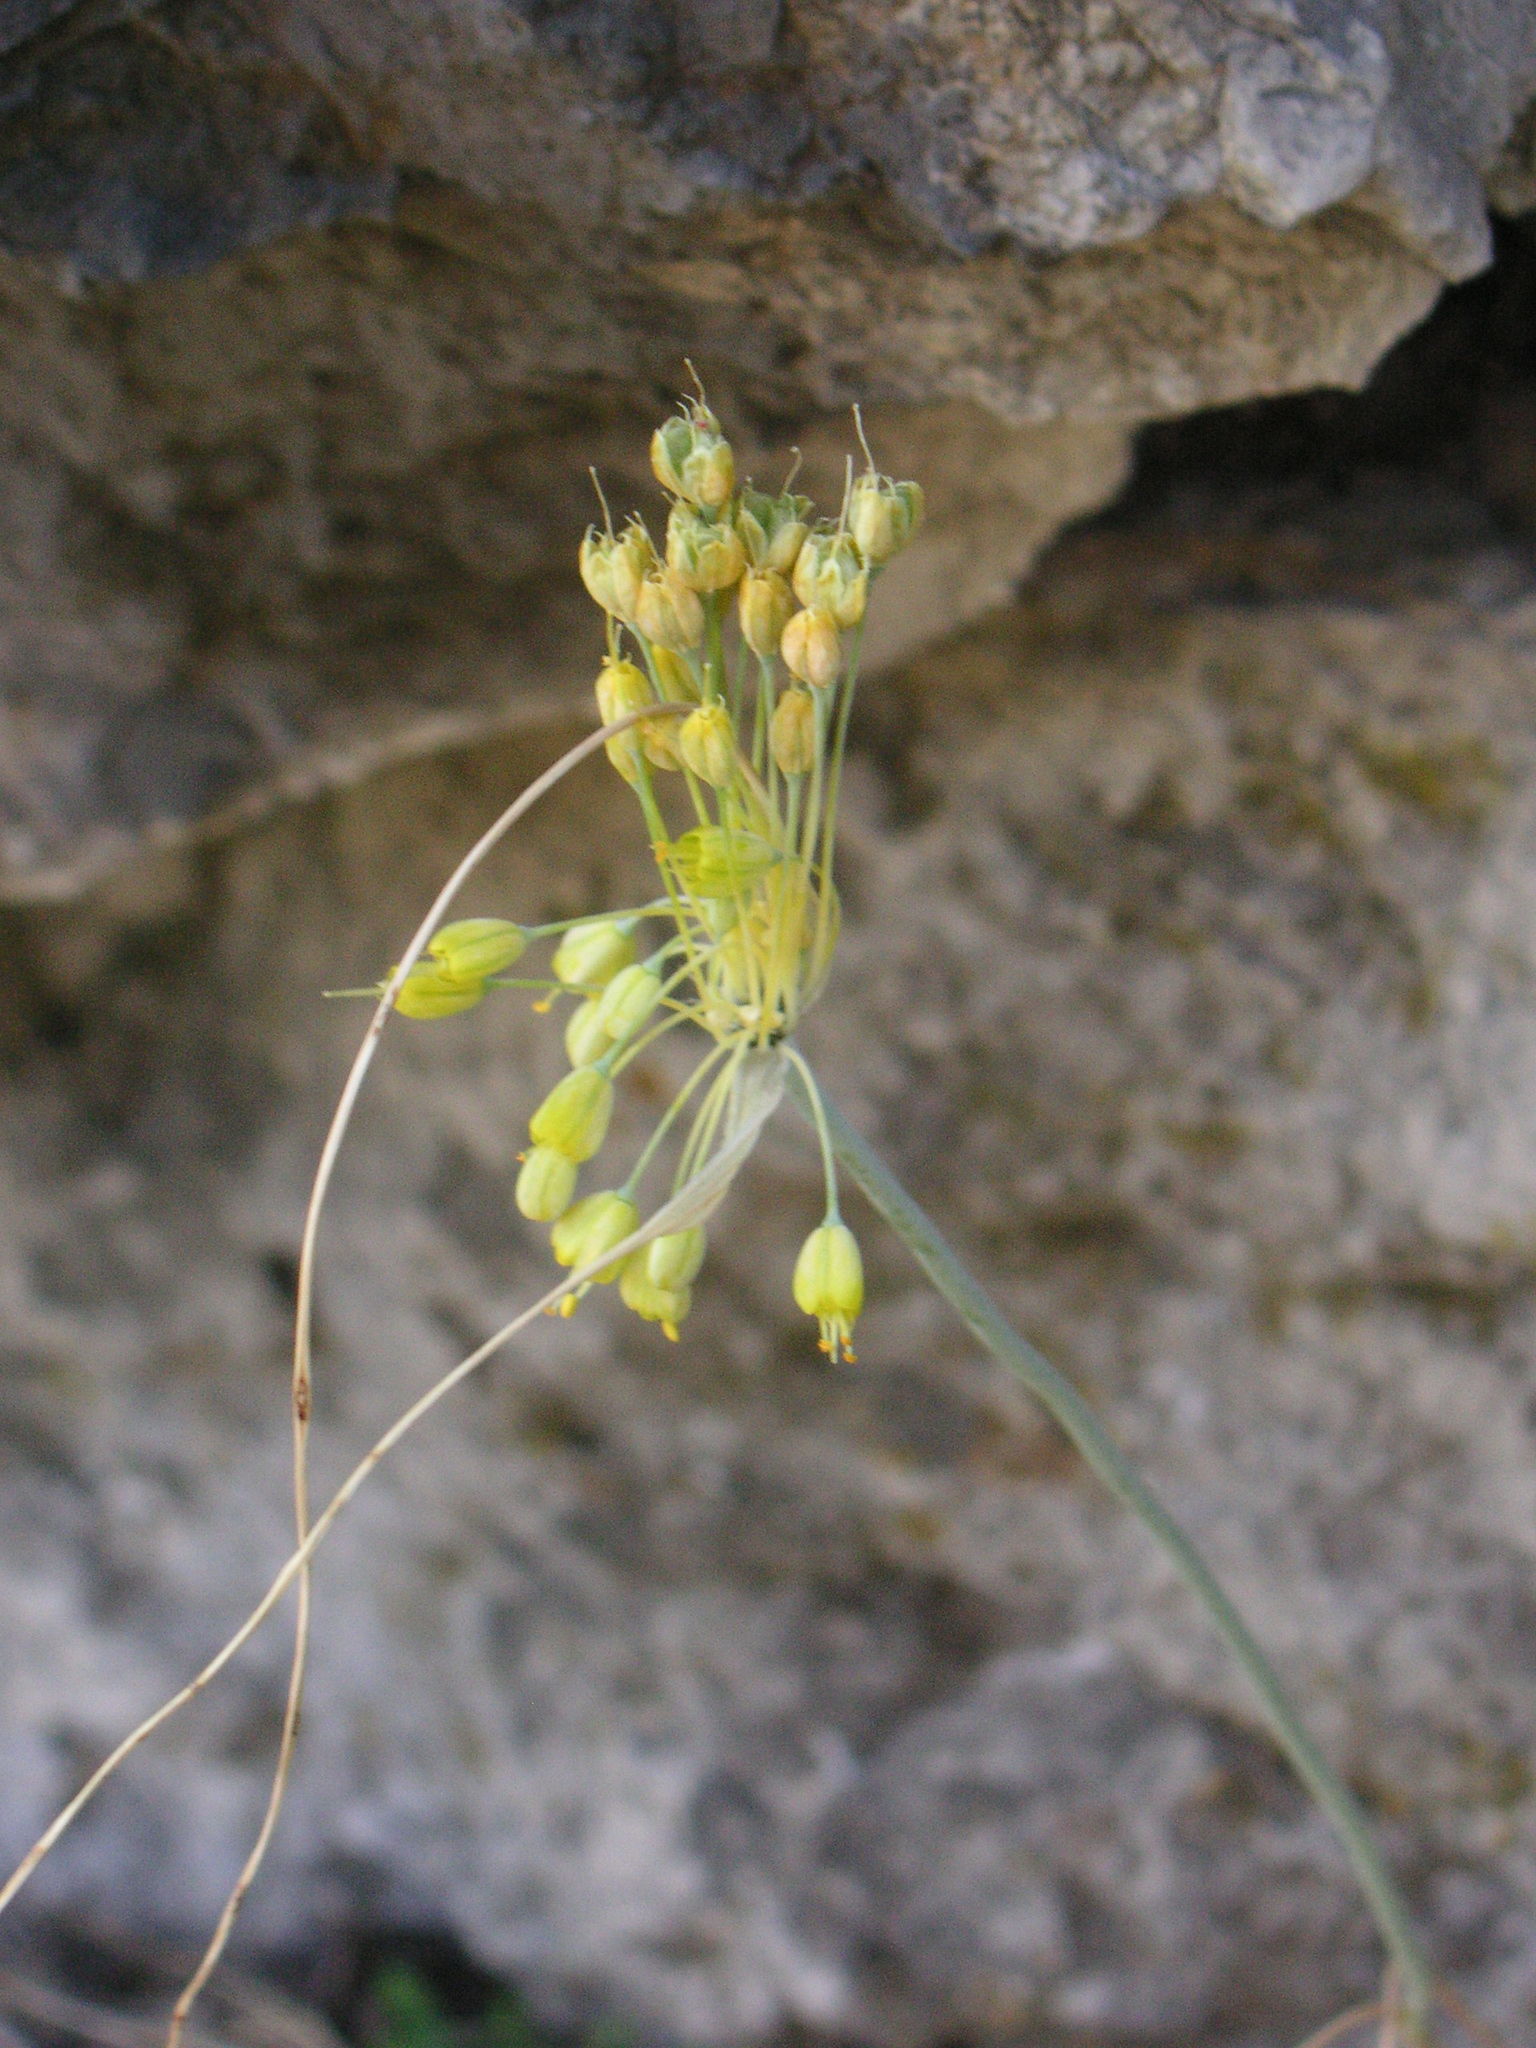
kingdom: Plantae
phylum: Tracheophyta
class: Liliopsida
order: Asparagales
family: Amaryllidaceae
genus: Allium
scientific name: Allium flavum
